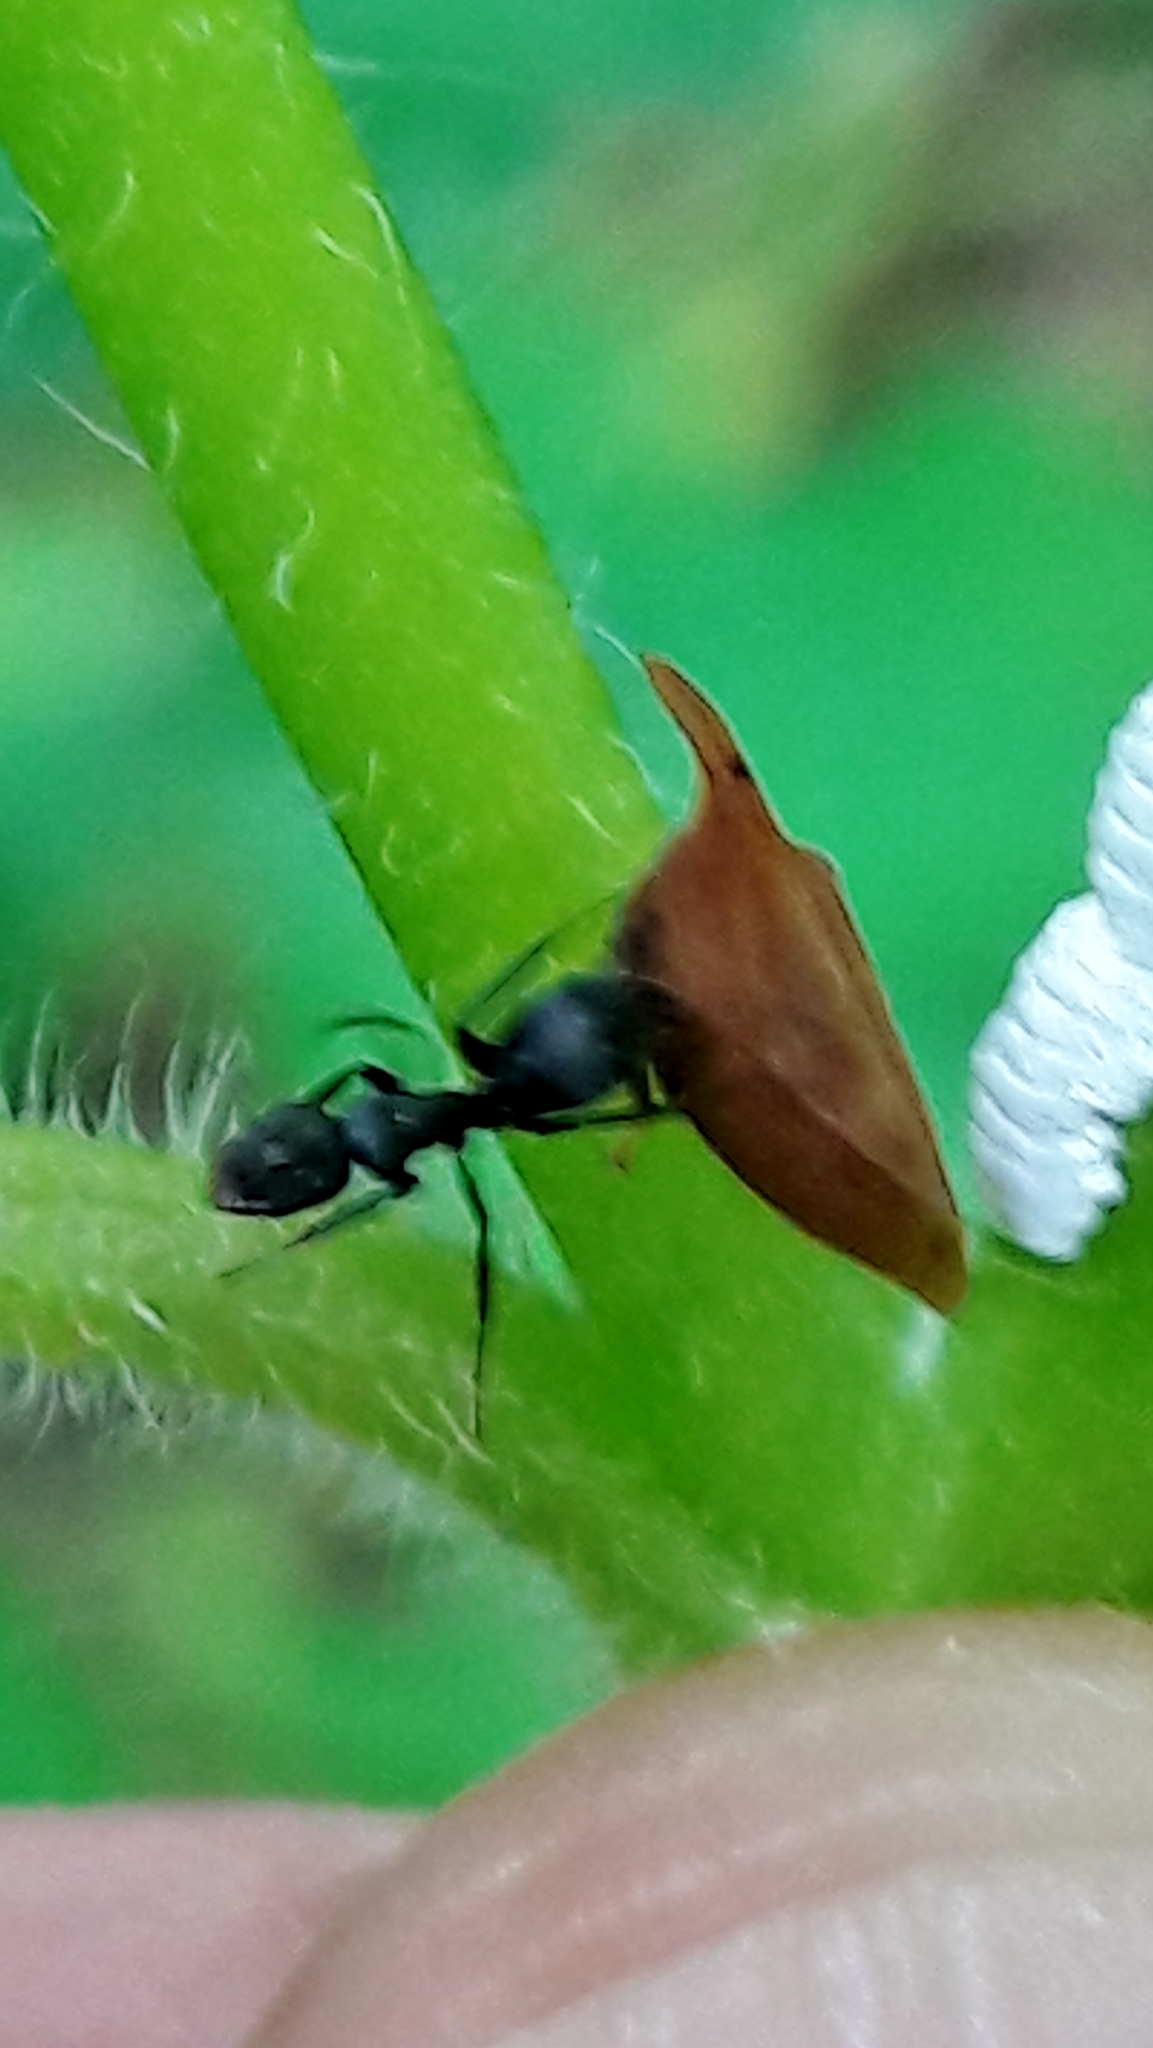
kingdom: Animalia
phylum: Arthropoda
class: Insecta
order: Hemiptera
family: Membracidae
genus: Enchenopa
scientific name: Enchenopa squamigera
